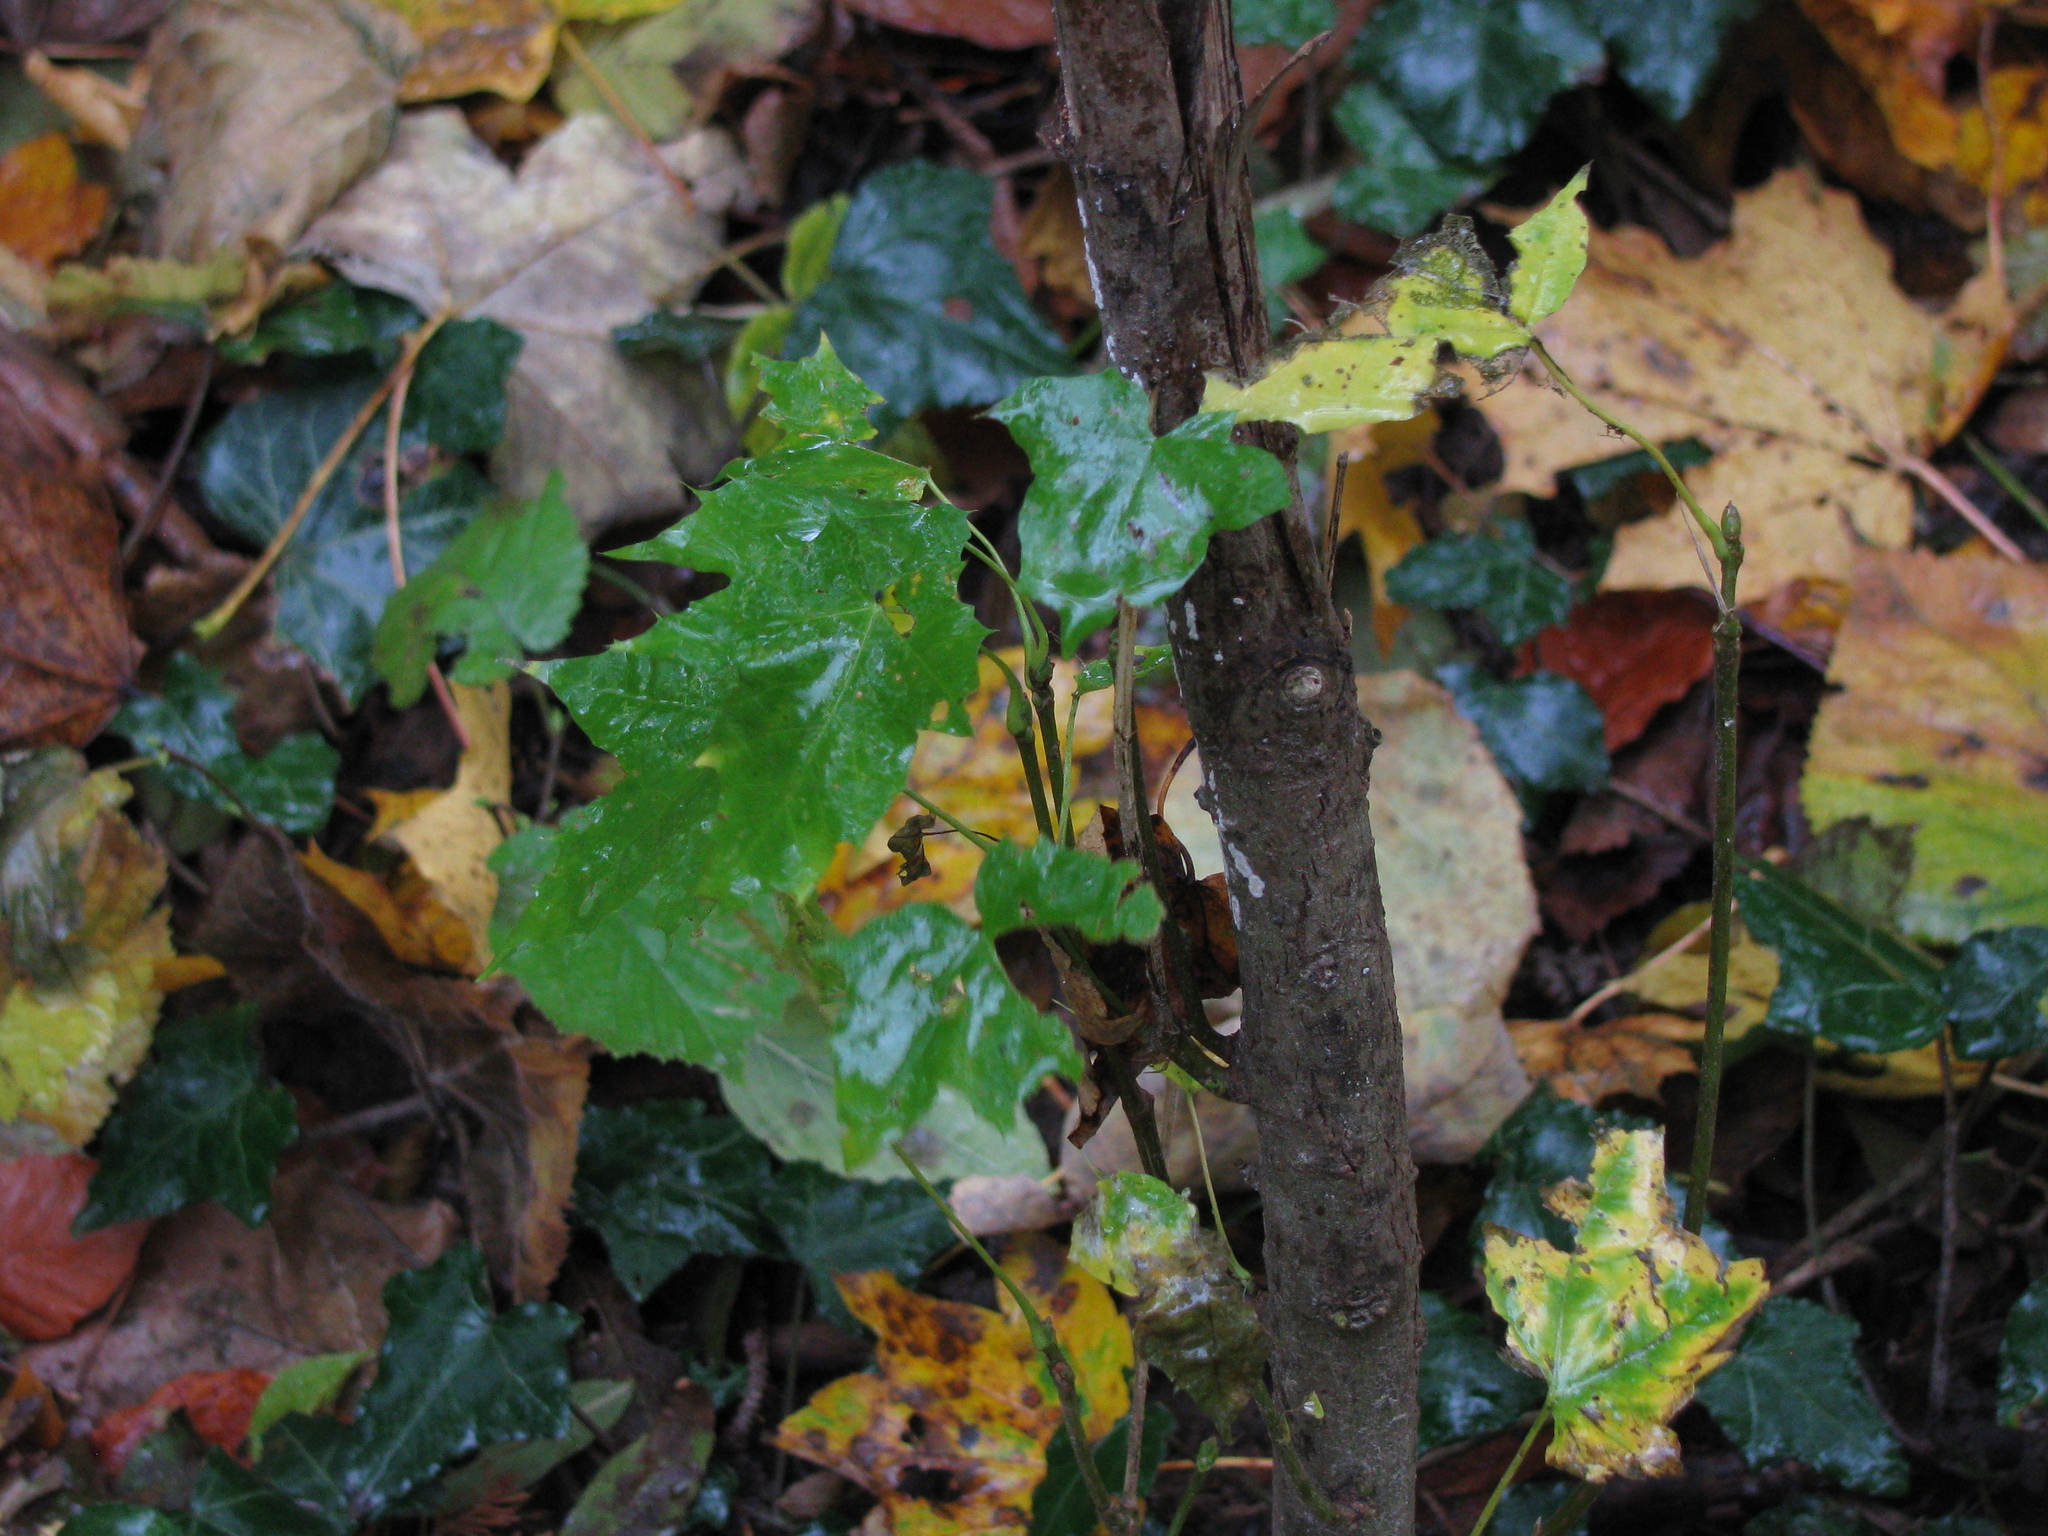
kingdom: Plantae
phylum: Tracheophyta
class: Magnoliopsida
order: Sapindales
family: Sapindaceae
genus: Acer
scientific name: Acer platanoides
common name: Norway maple
